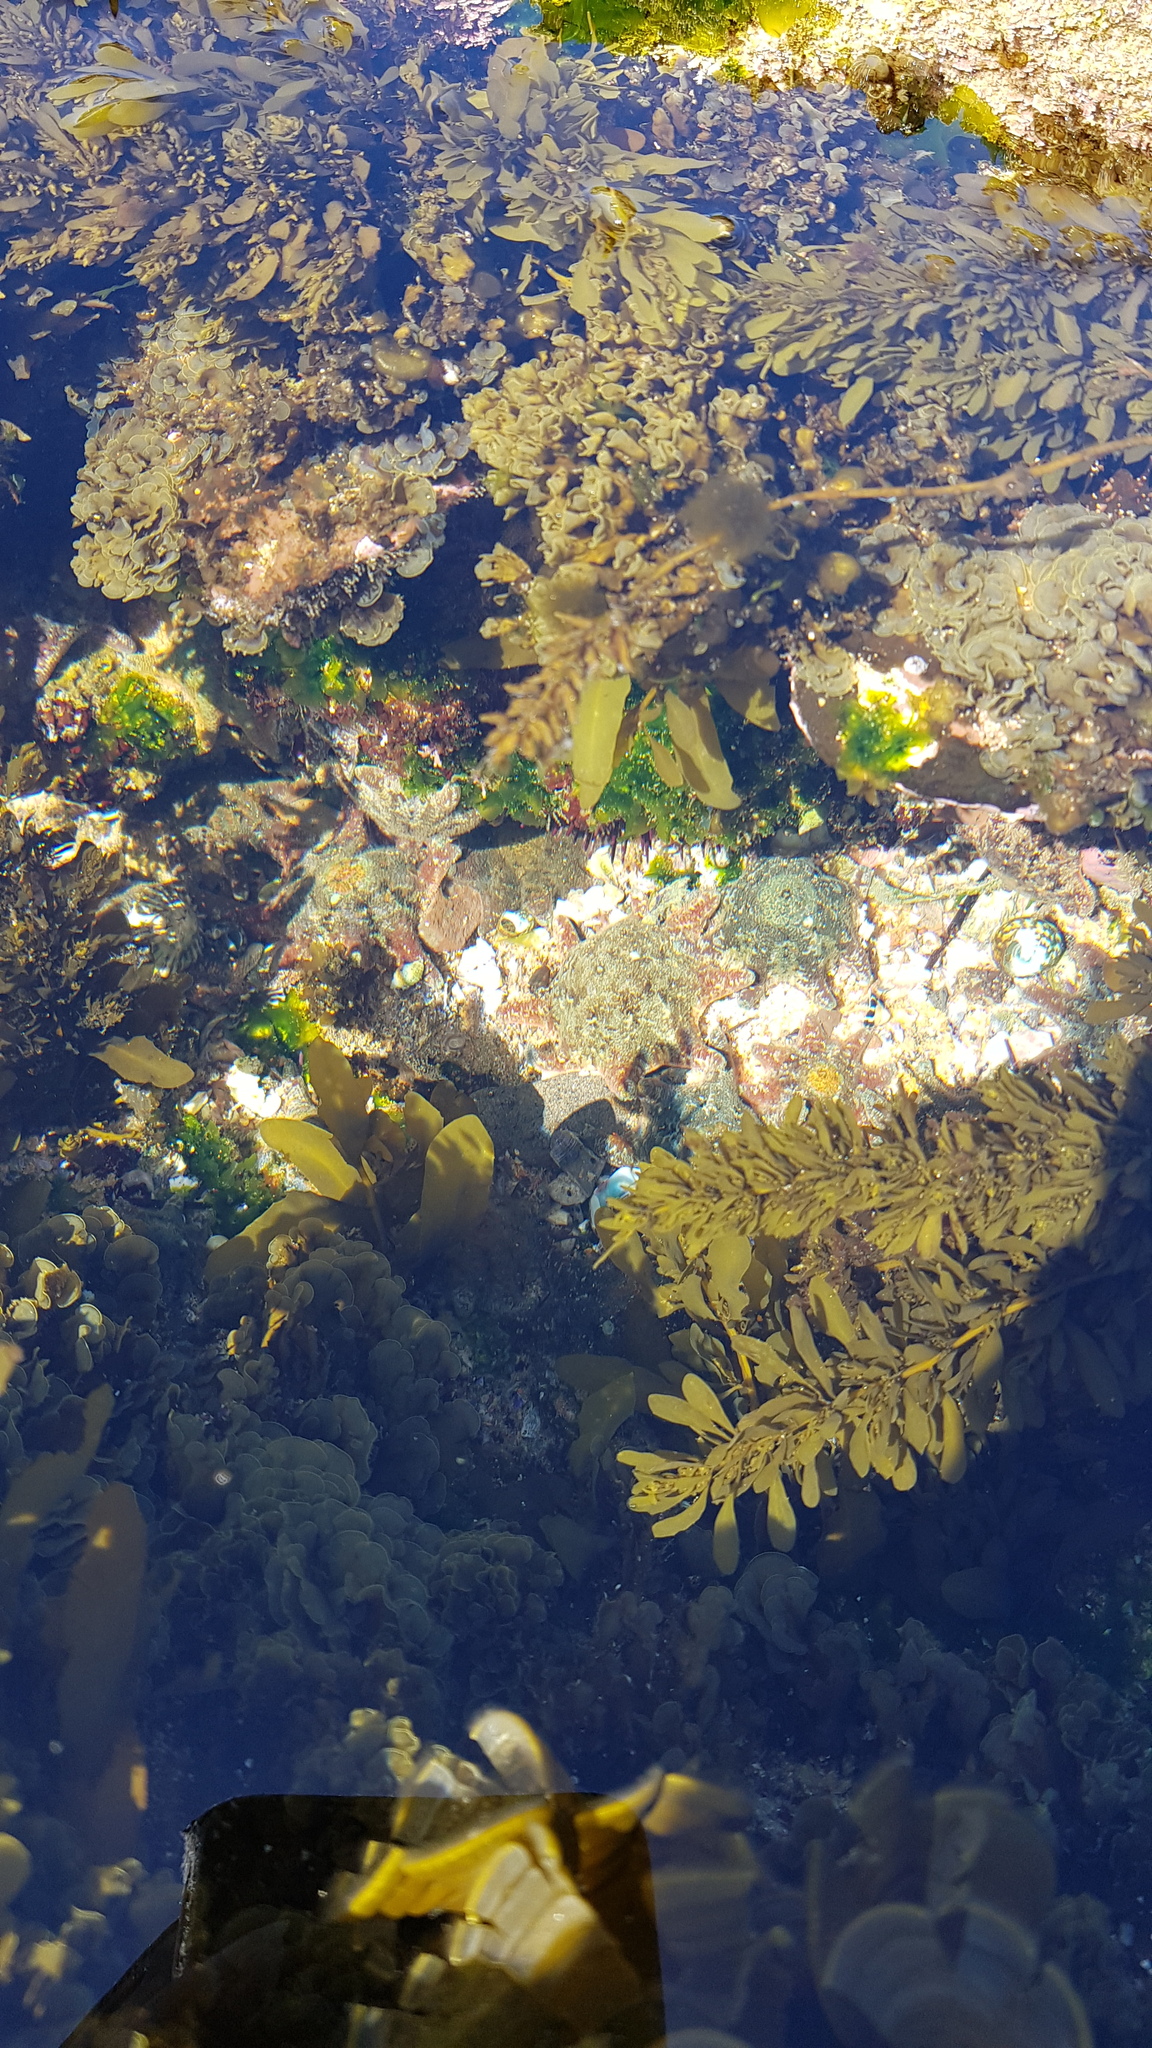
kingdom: Animalia
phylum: Echinodermata
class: Asteroidea
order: Valvatida
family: Asterinidae
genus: Meridiastra
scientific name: Meridiastra calcar
